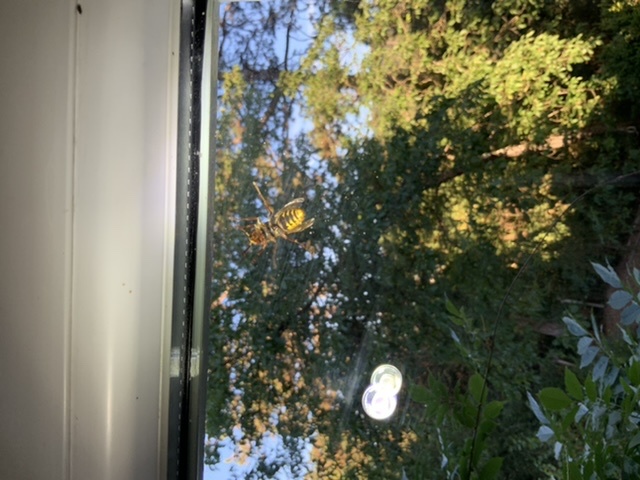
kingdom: Animalia
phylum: Arthropoda
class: Insecta
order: Hymenoptera
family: Vespidae
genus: Vespa
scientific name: Vespa crabro
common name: Hornet
